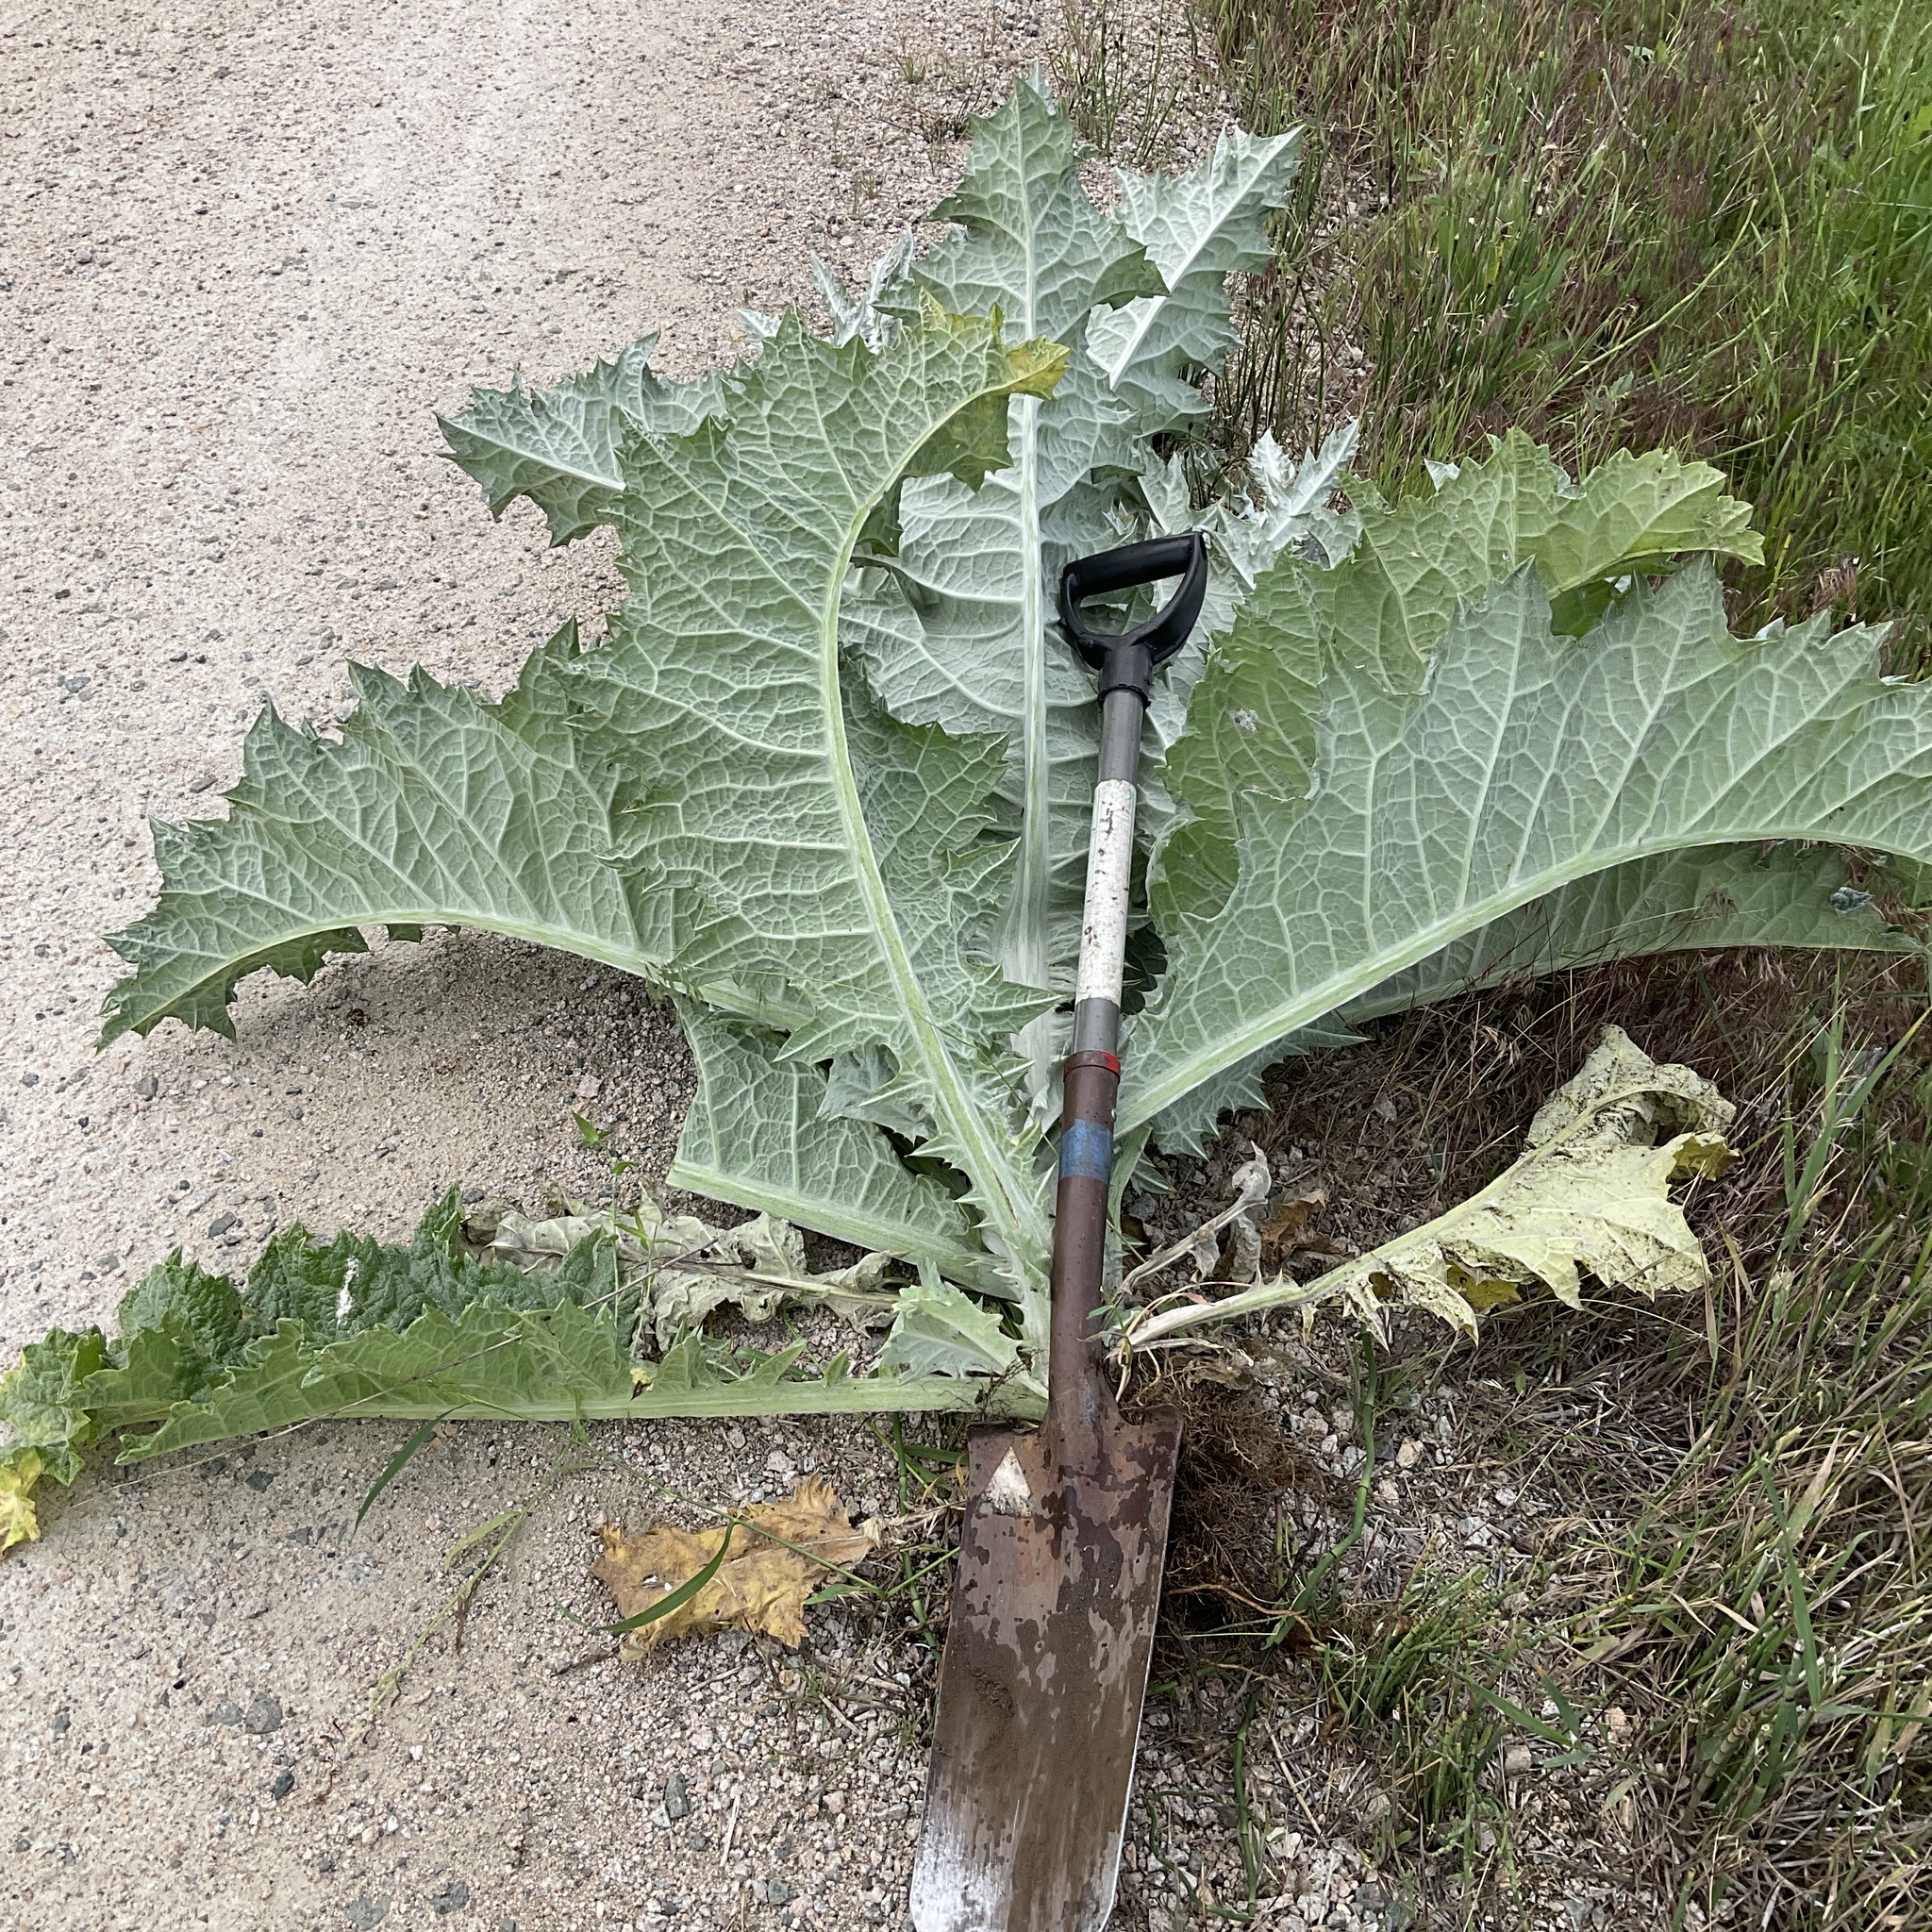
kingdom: Plantae
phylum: Tracheophyta
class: Magnoliopsida
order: Asterales
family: Asteraceae
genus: Onopordum
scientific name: Onopordum acanthium
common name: Scotch thistle
